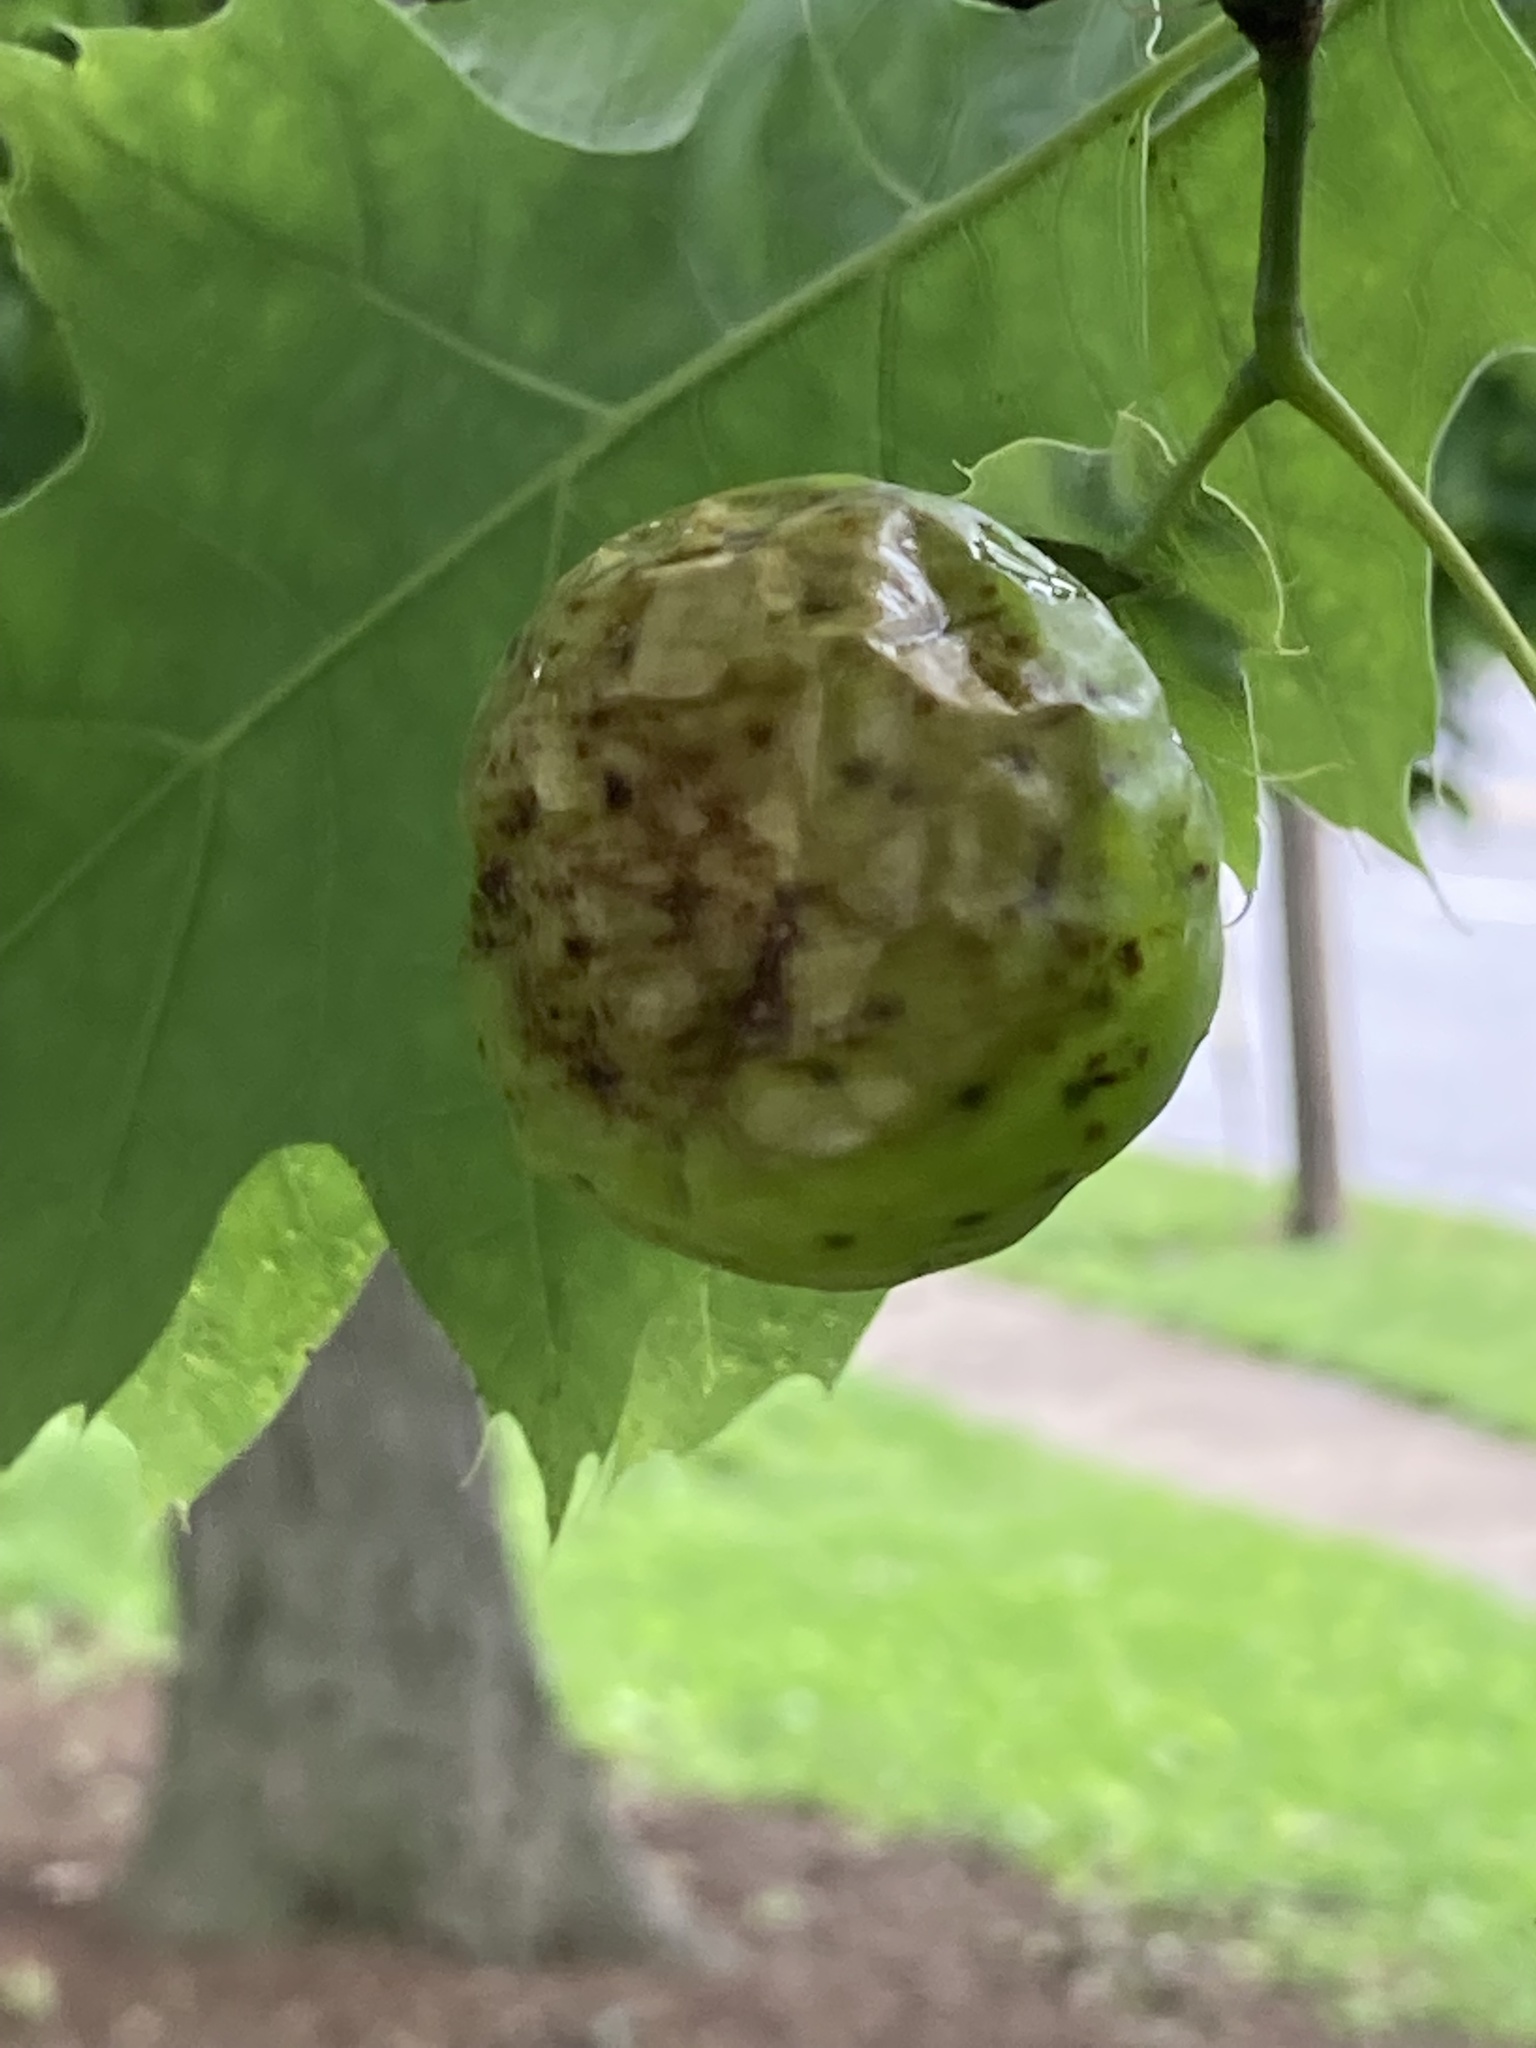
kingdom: Animalia
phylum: Arthropoda
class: Insecta
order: Hymenoptera
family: Cynipidae
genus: Amphibolips
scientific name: Amphibolips
